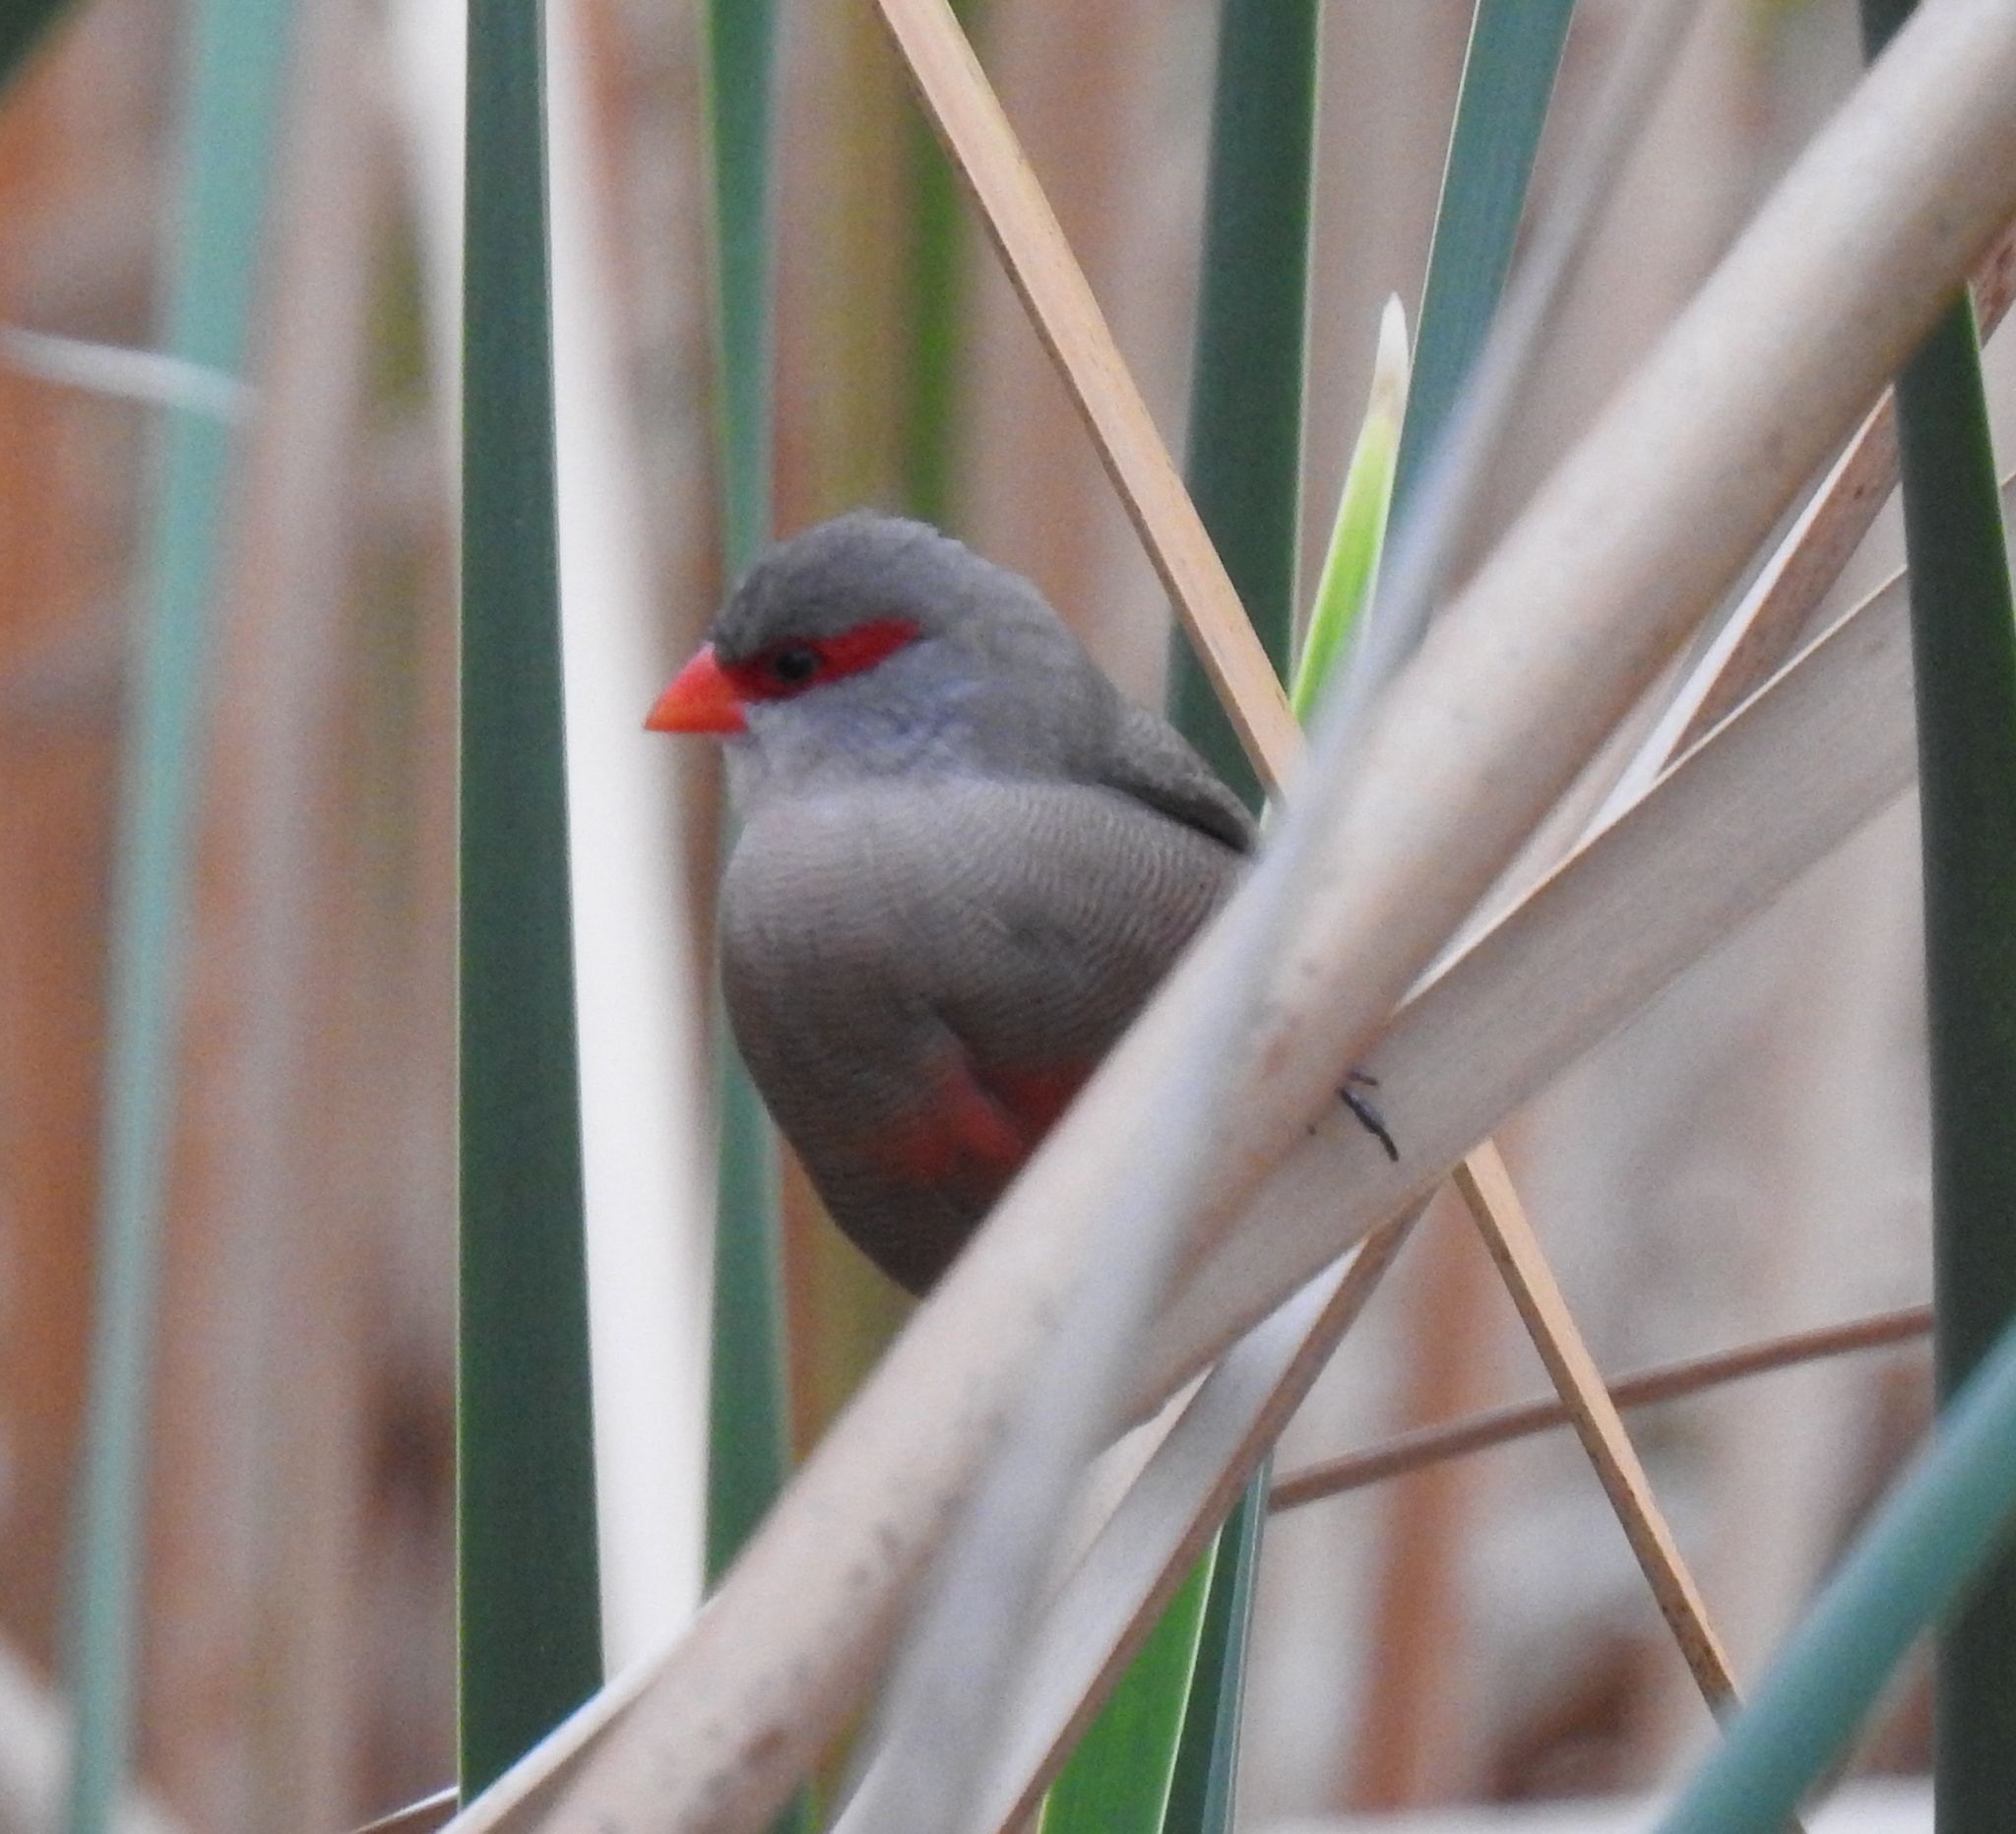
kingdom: Animalia
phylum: Chordata
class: Aves
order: Passeriformes
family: Estrildidae
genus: Estrilda
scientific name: Estrilda astrild
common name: Common waxbill
